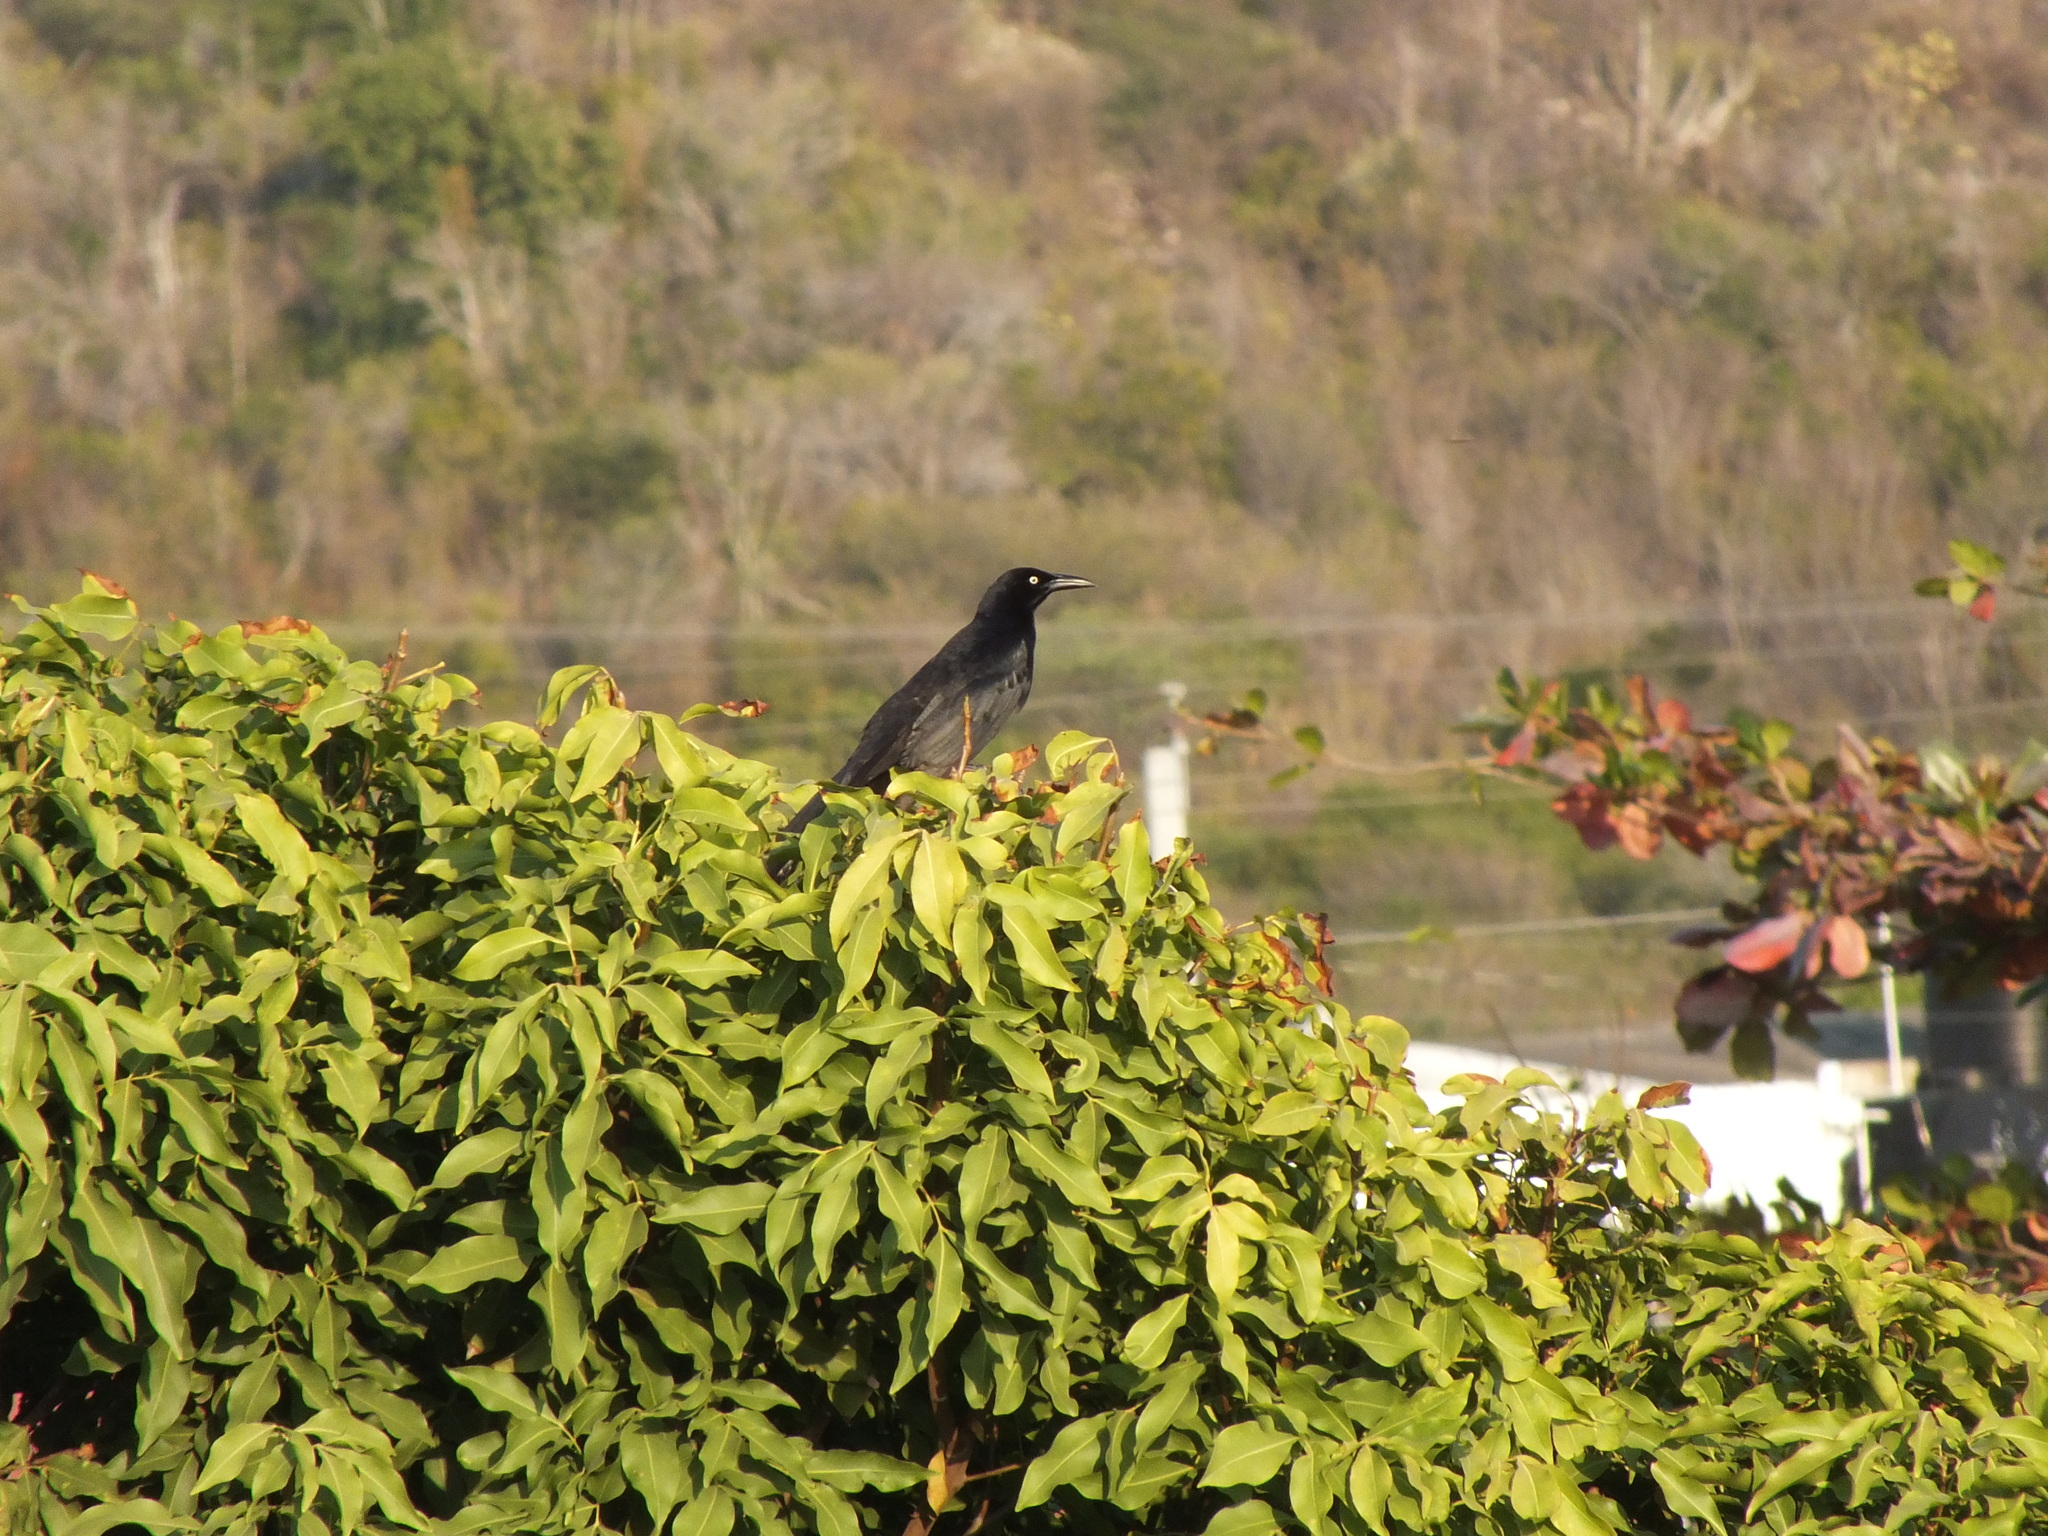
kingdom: Animalia
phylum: Chordata
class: Aves
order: Passeriformes
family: Icteridae
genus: Quiscalus
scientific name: Quiscalus niger
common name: Greater antillean grackle
